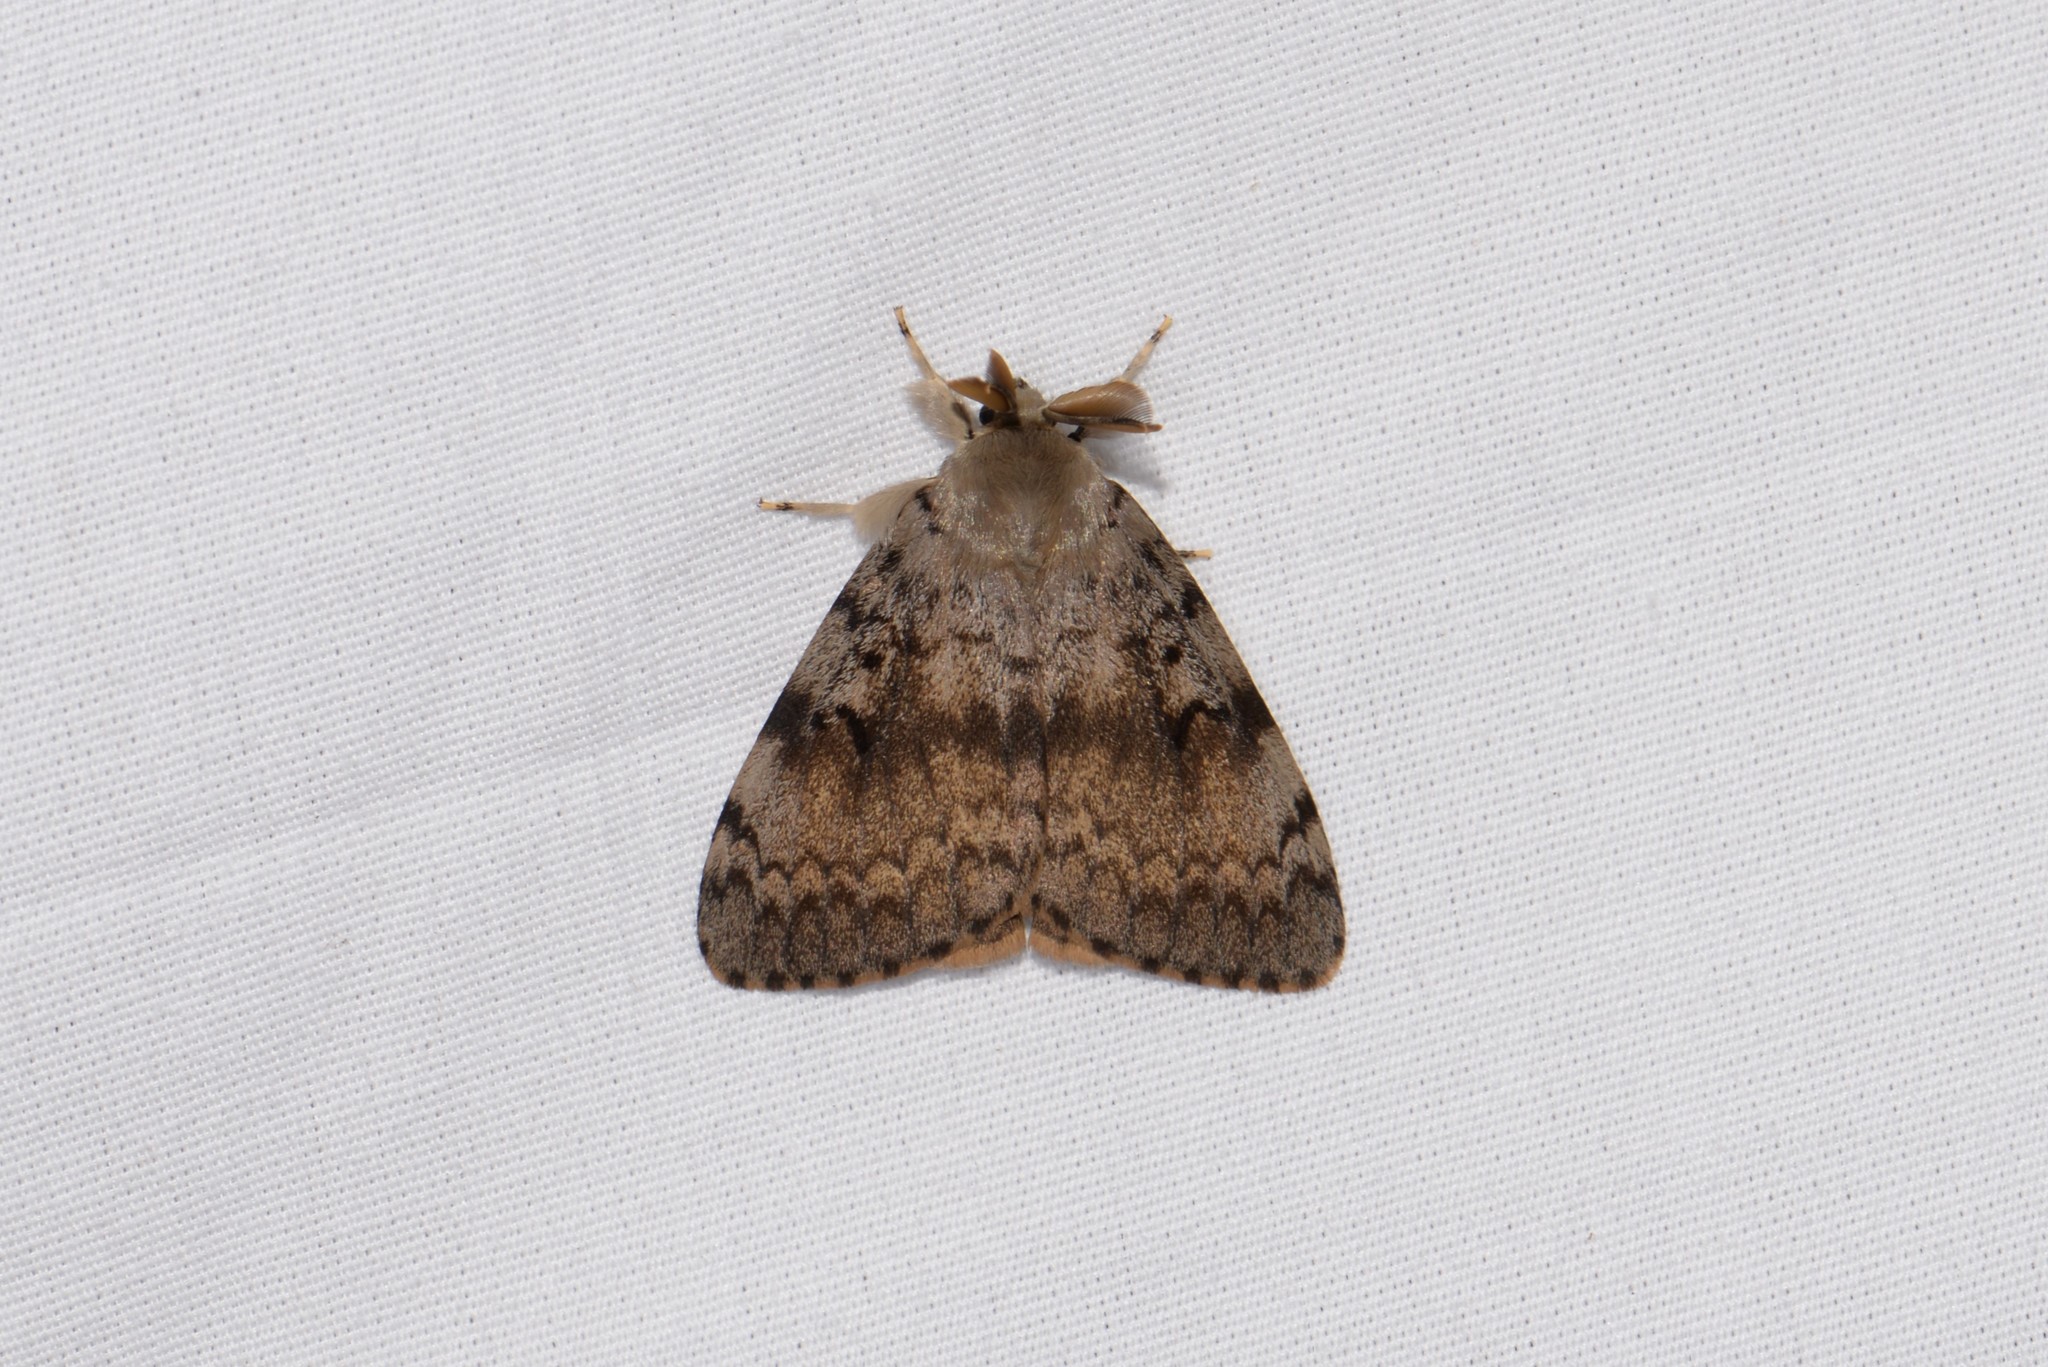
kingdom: Animalia
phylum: Arthropoda
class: Insecta
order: Lepidoptera
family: Erebidae
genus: Lymantria
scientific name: Lymantria dispar
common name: Gypsy moth
